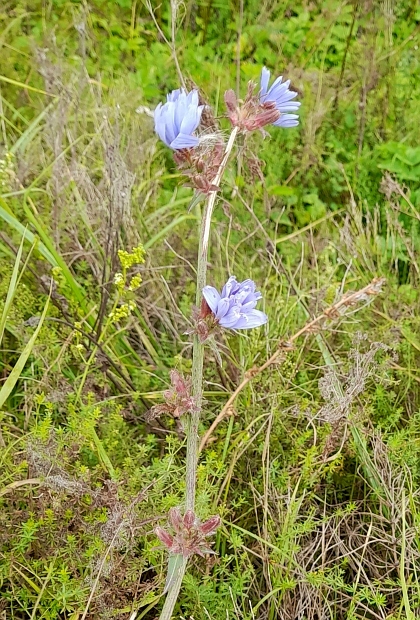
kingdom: Plantae
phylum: Tracheophyta
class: Magnoliopsida
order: Asterales
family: Asteraceae
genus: Cichorium
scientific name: Cichorium intybus
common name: Chicory
